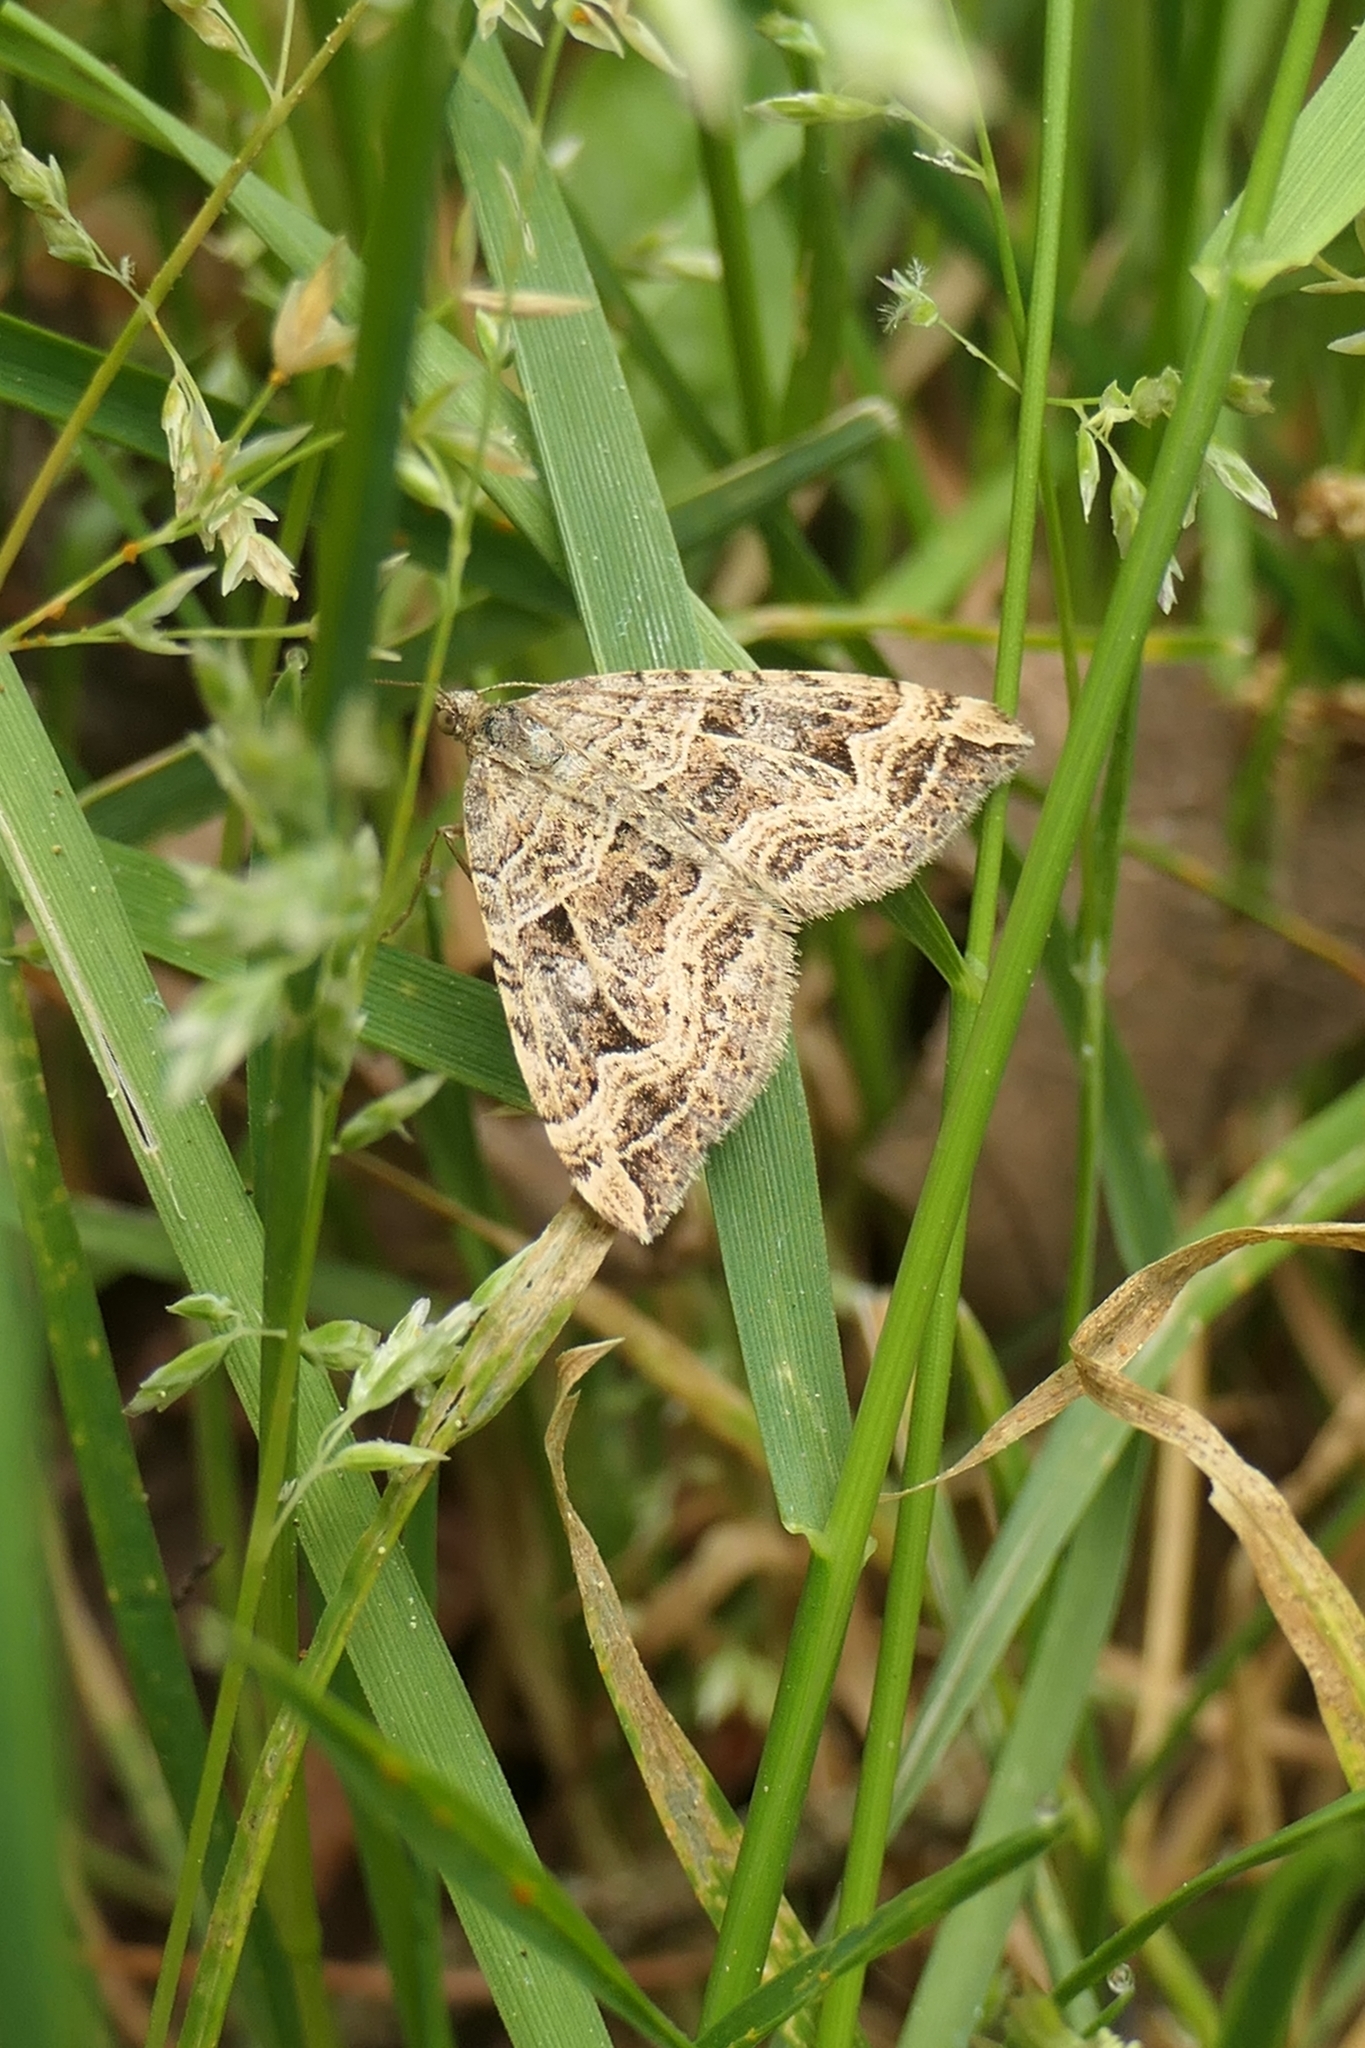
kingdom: Animalia
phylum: Arthropoda
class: Insecta
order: Lepidoptera
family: Geometridae
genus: Xanthorhoe
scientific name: Xanthorhoe semifissata
